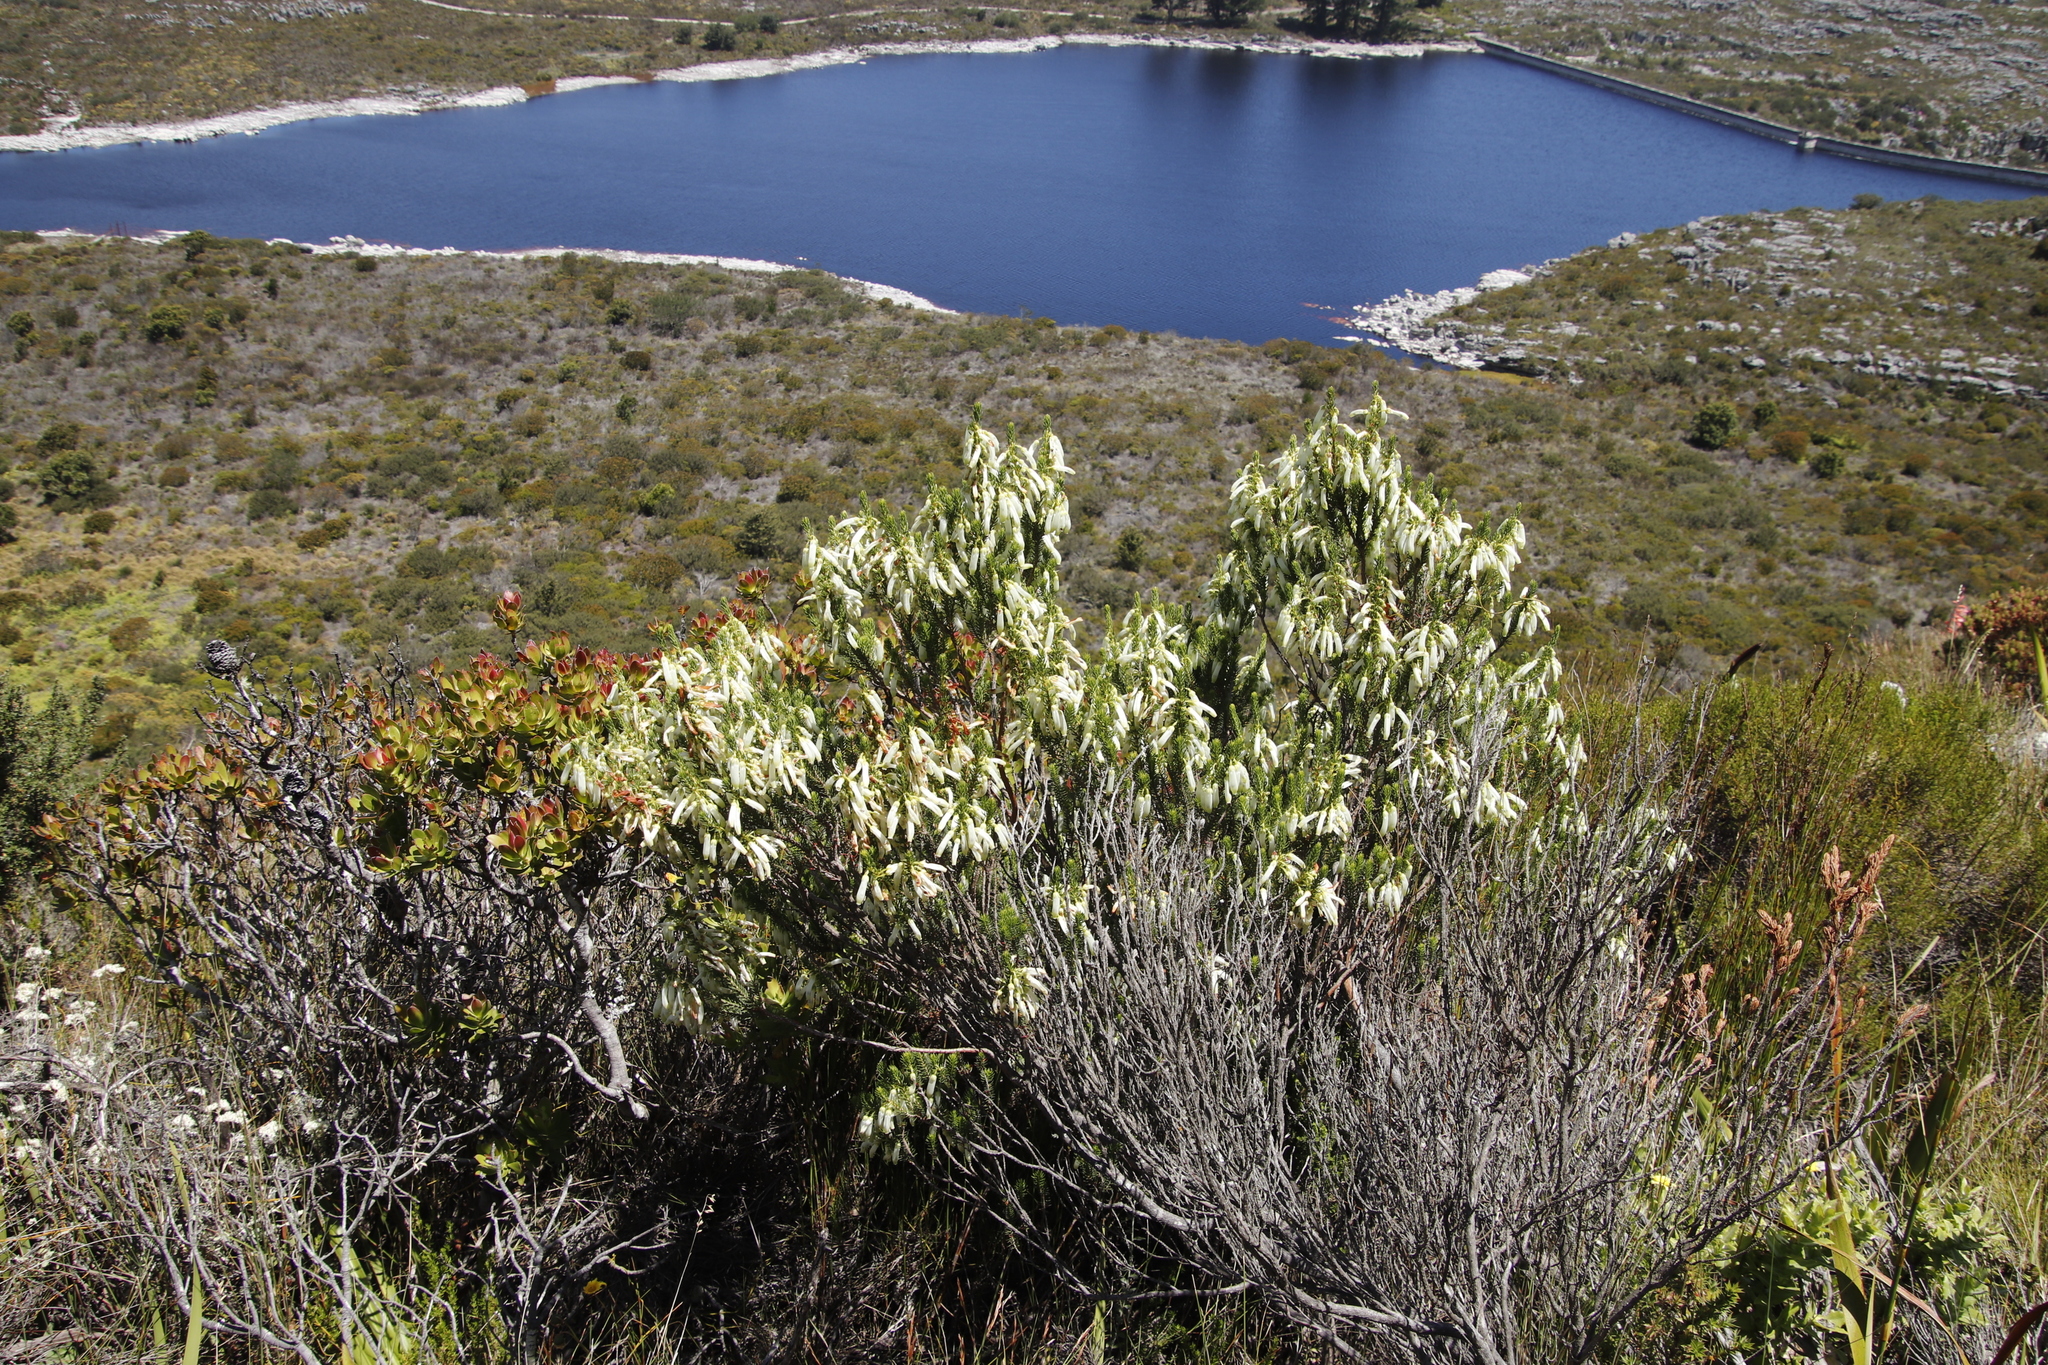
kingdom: Plantae
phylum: Tracheophyta
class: Magnoliopsida
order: Ericales
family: Ericaceae
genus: Erica
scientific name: Erica mammosa
